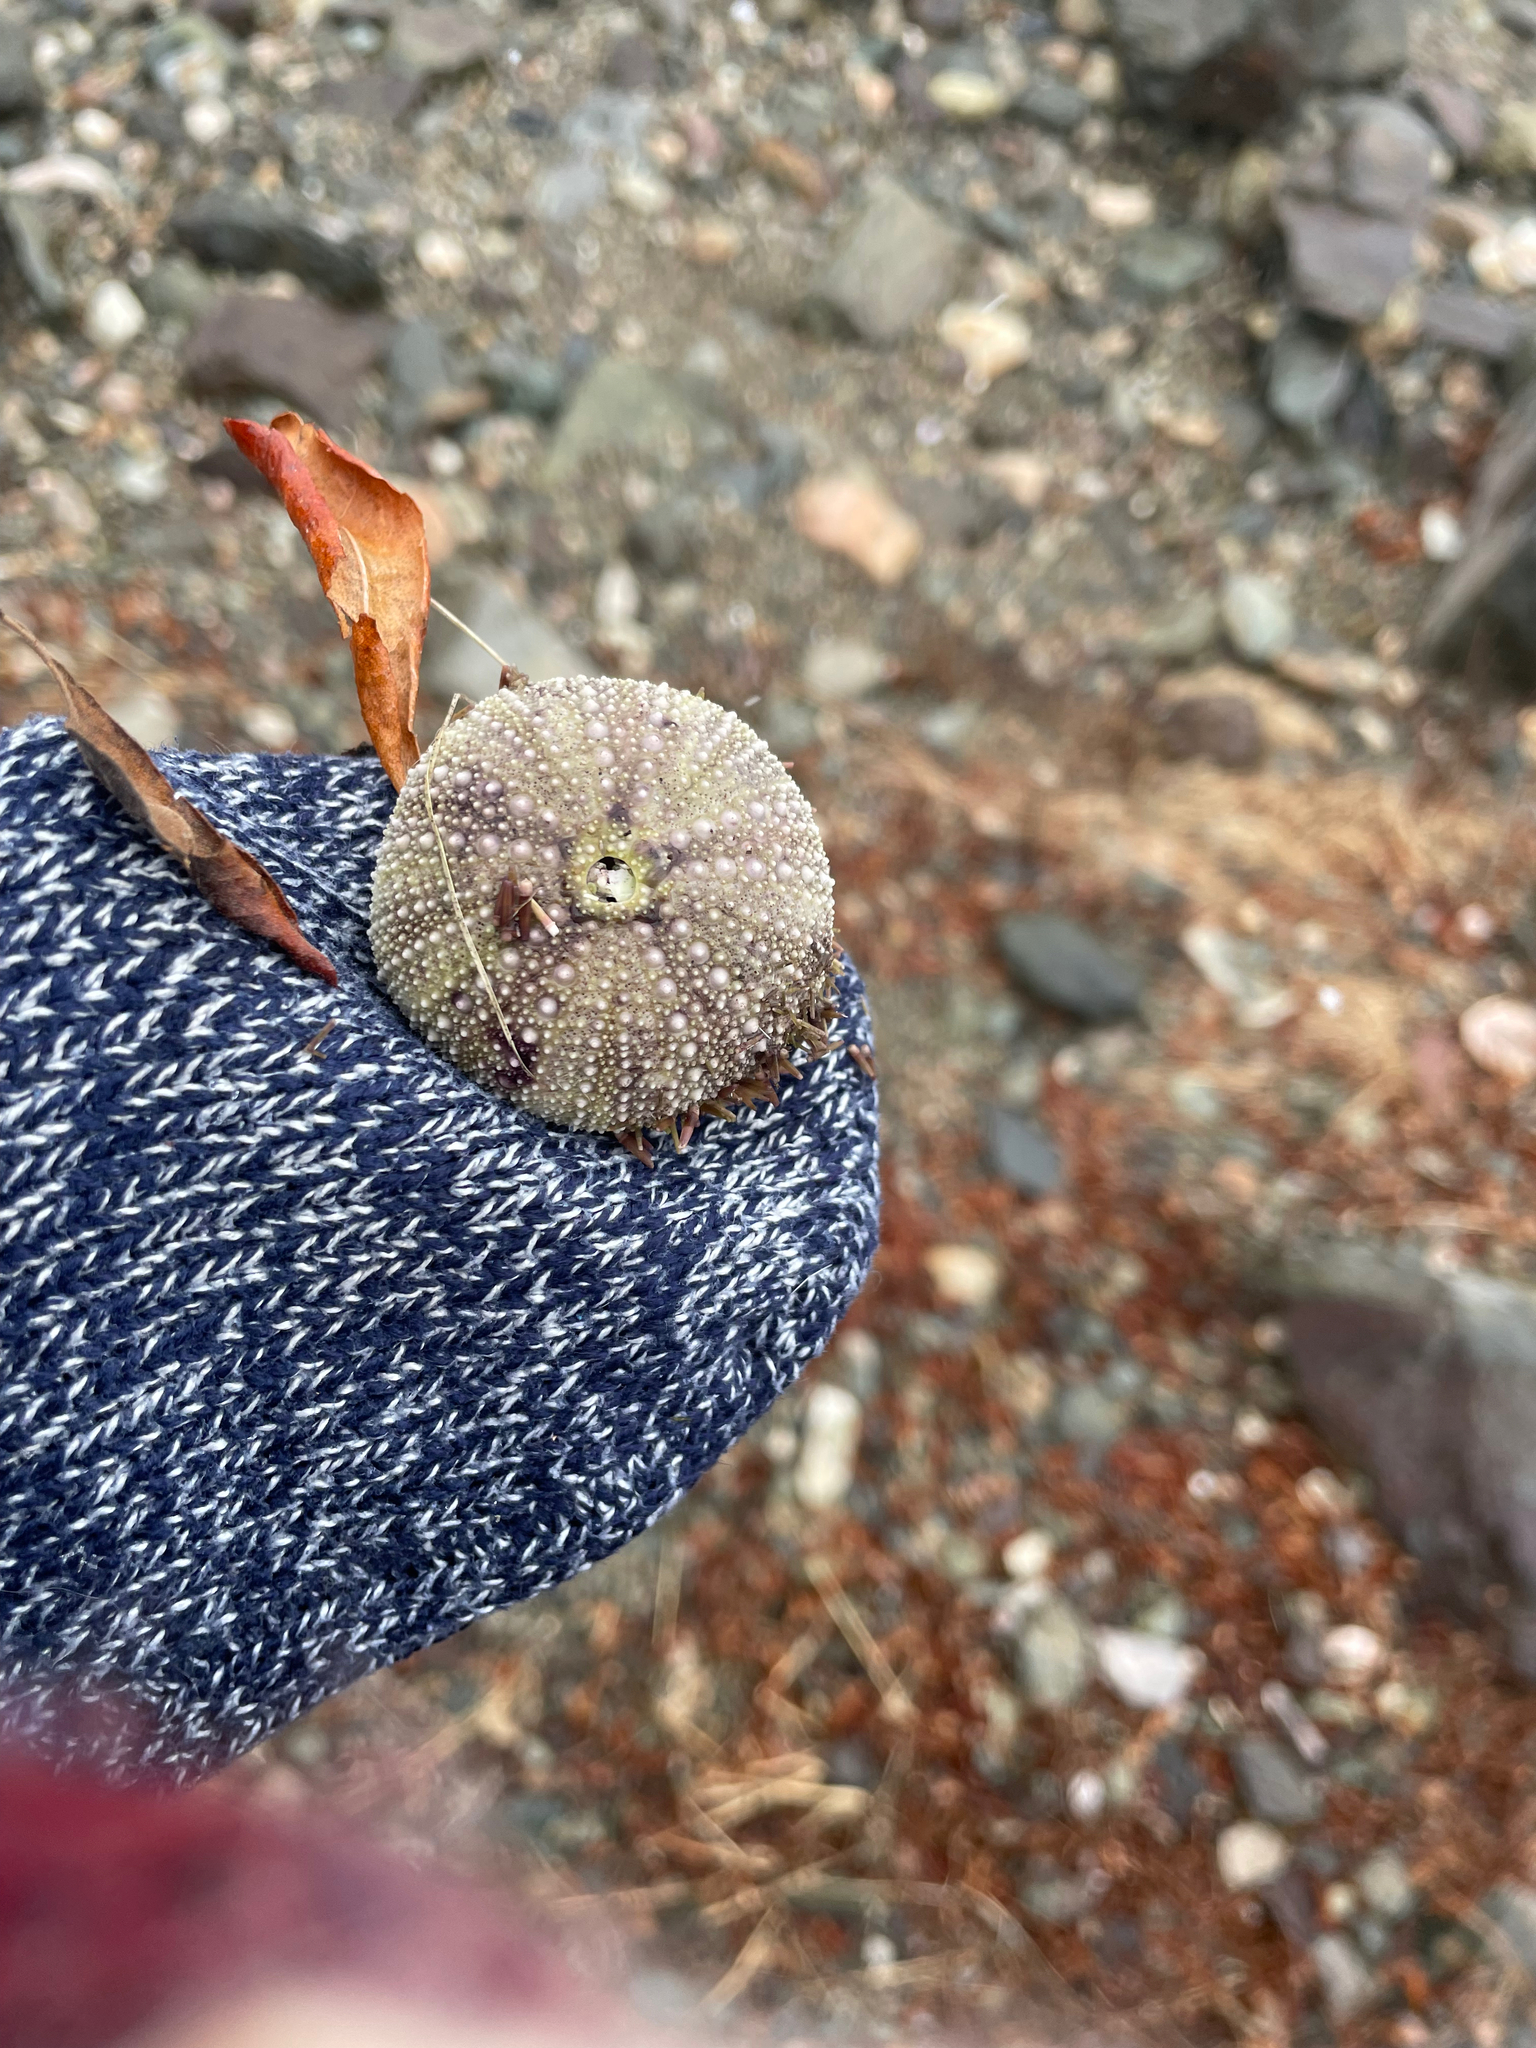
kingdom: Animalia
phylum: Echinodermata
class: Echinoidea
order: Camarodonta
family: Strongylocentrotidae
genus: Strongylocentrotus
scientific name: Strongylocentrotus droebachiensis
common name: Northern sea urchin
